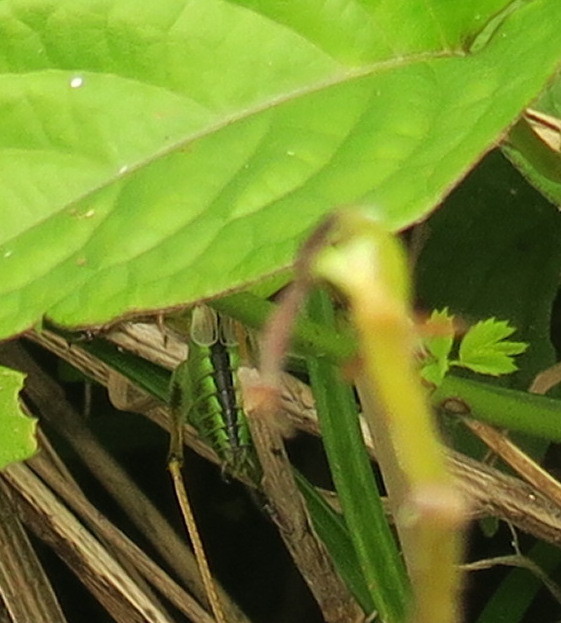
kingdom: Animalia
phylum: Arthropoda
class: Insecta
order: Orthoptera
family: Tettigoniidae
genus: Tettigonia
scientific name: Tettigonia orientalis
